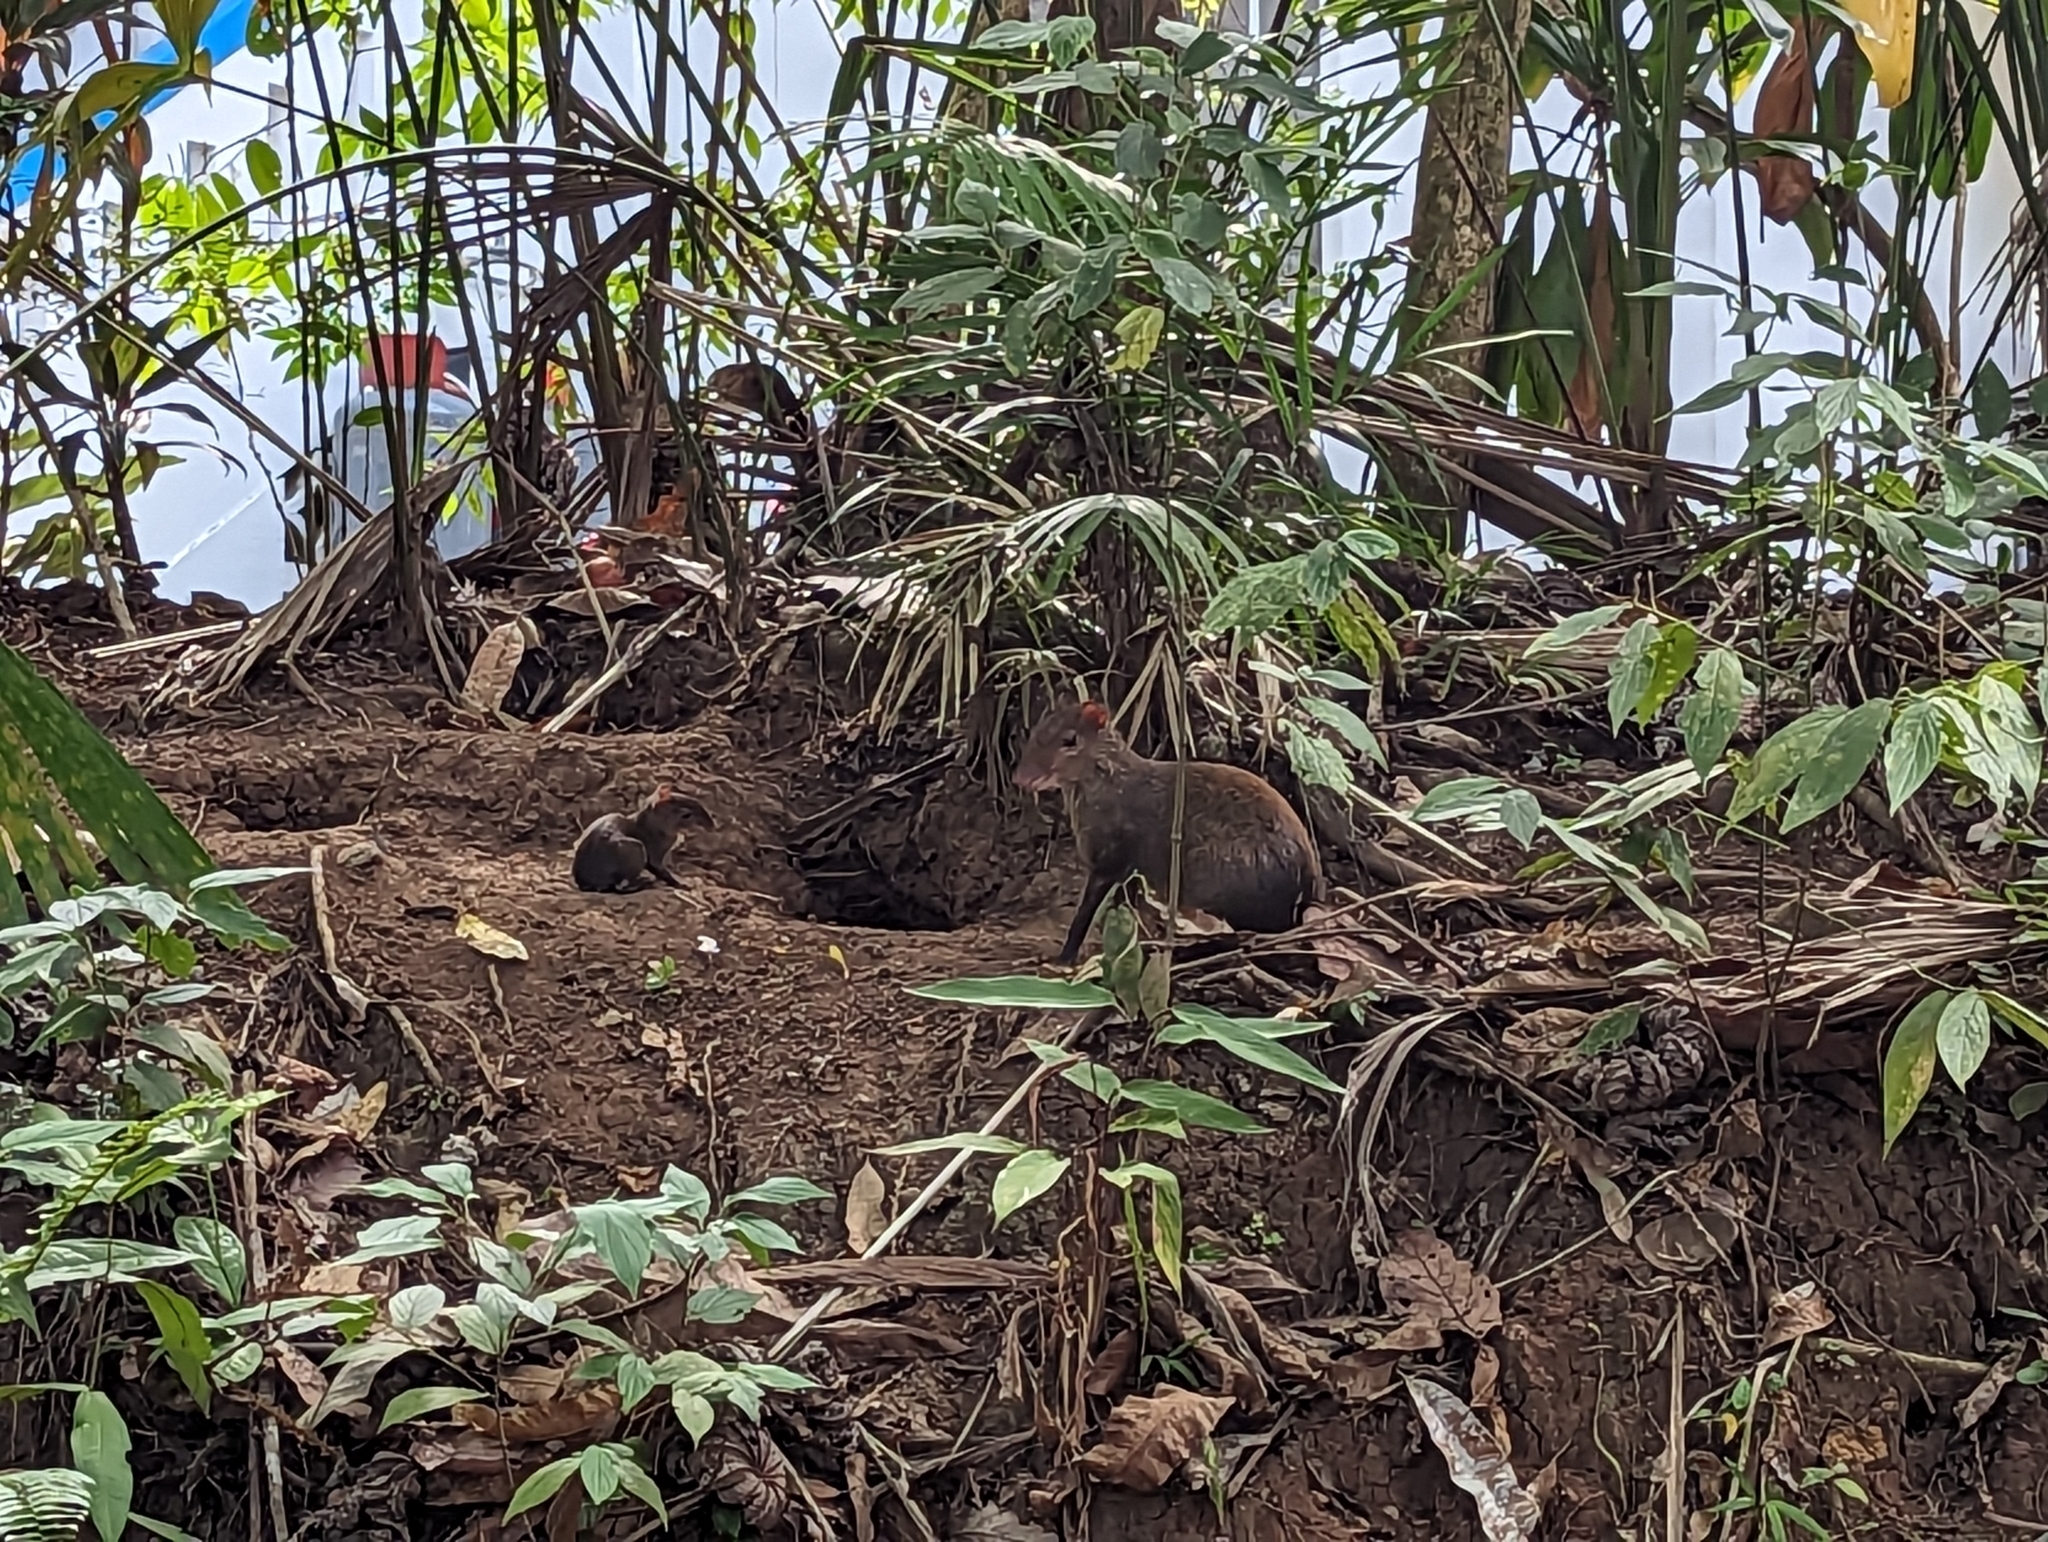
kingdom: Animalia
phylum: Chordata
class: Mammalia
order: Rodentia
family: Dasyproctidae
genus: Dasyprocta
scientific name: Dasyprocta punctata
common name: Central american agouti
